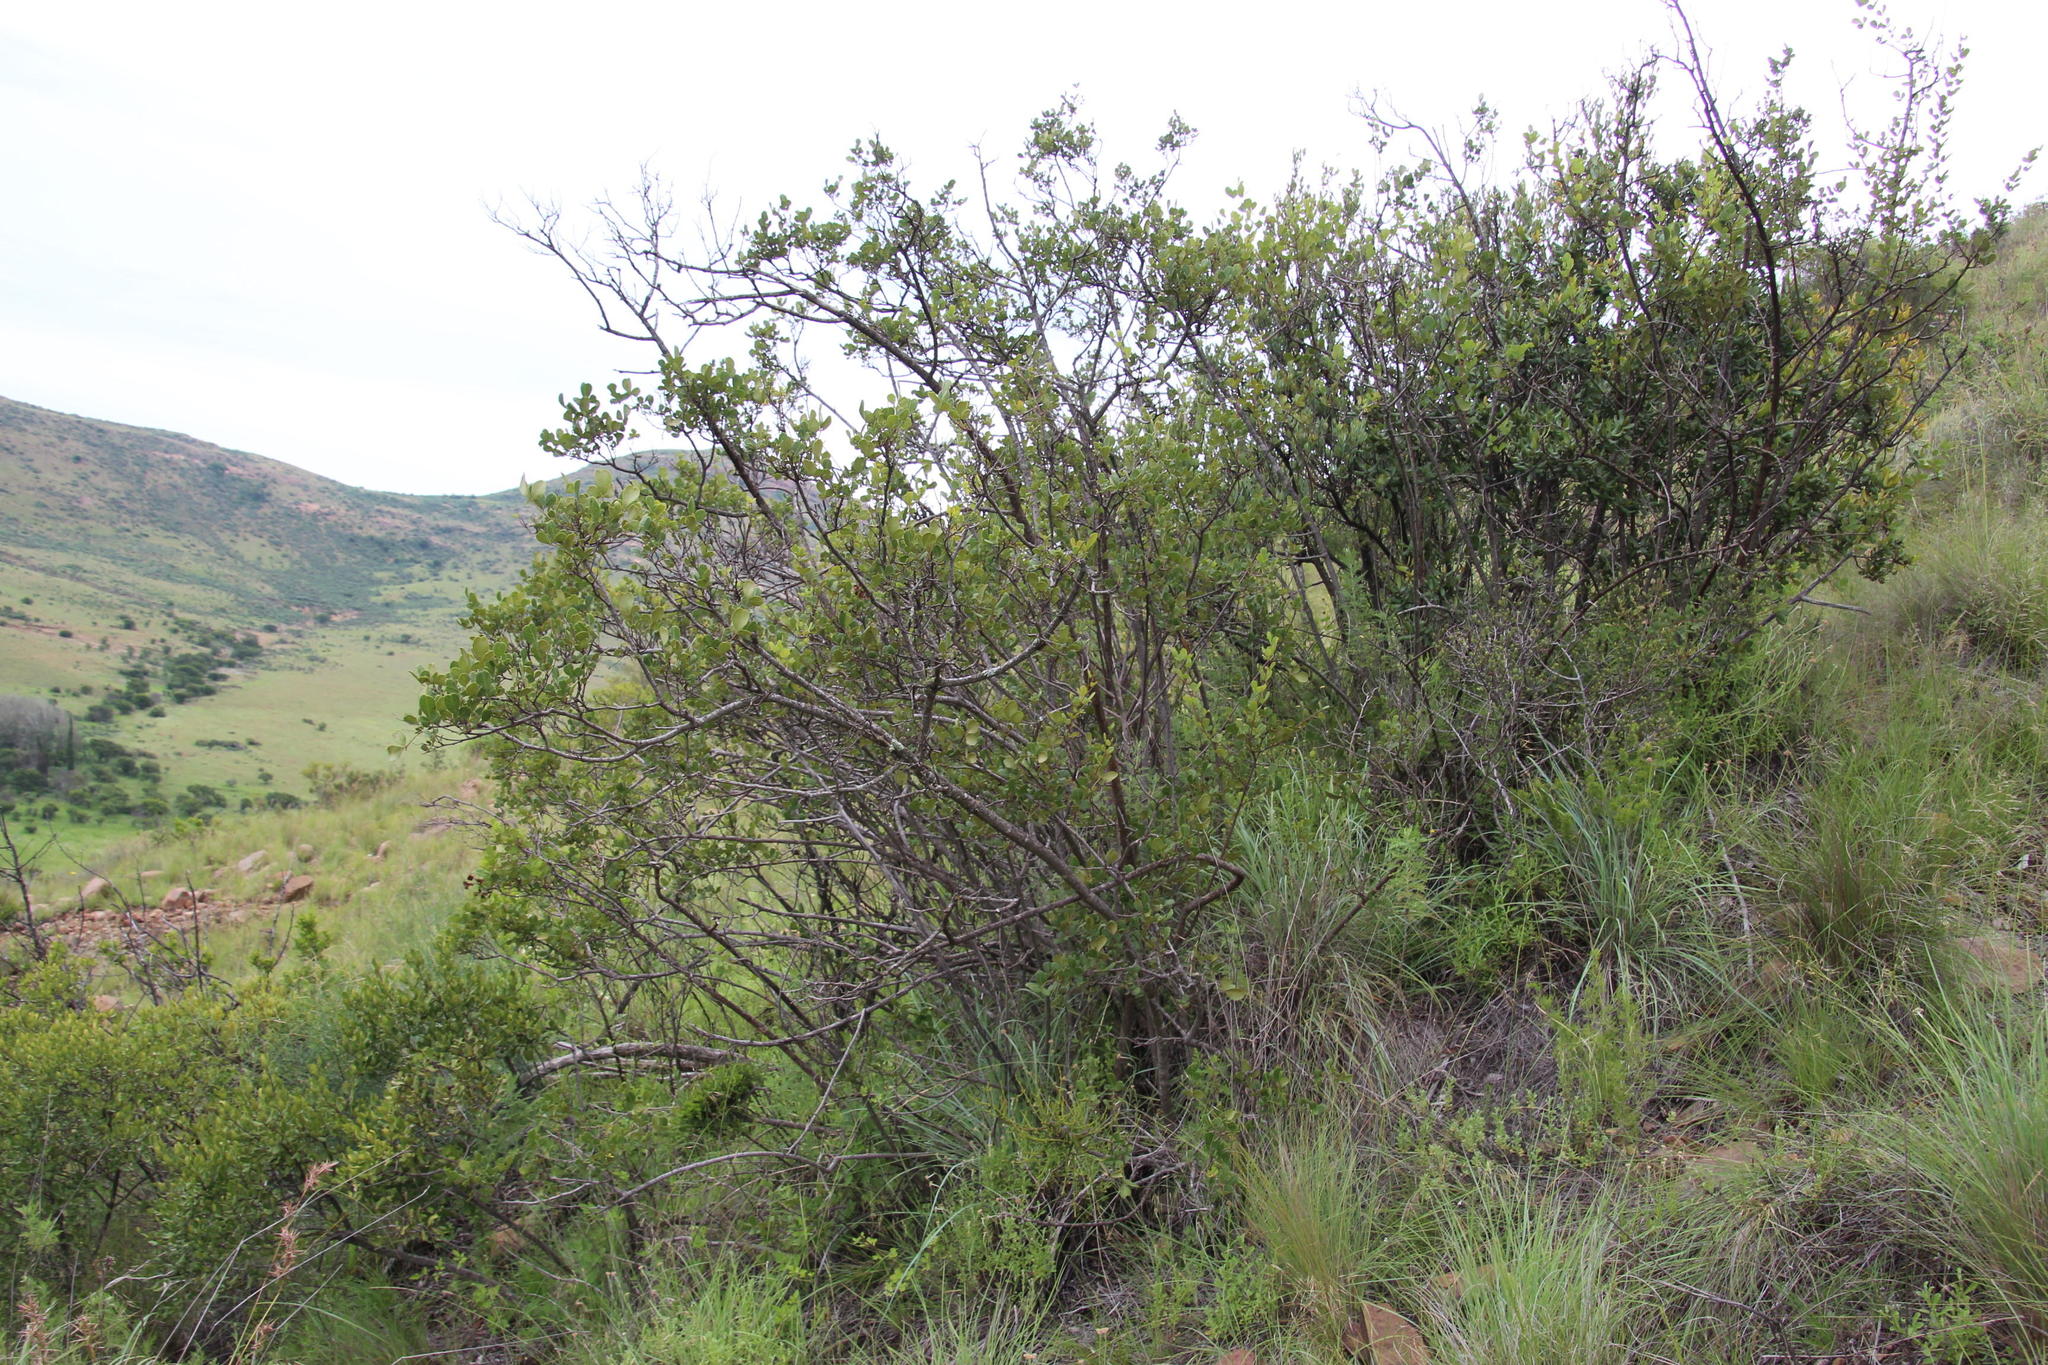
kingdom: Plantae
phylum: Tracheophyta
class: Magnoliopsida
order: Sapindales
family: Anacardiaceae
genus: Searsia
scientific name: Searsia divaricata
